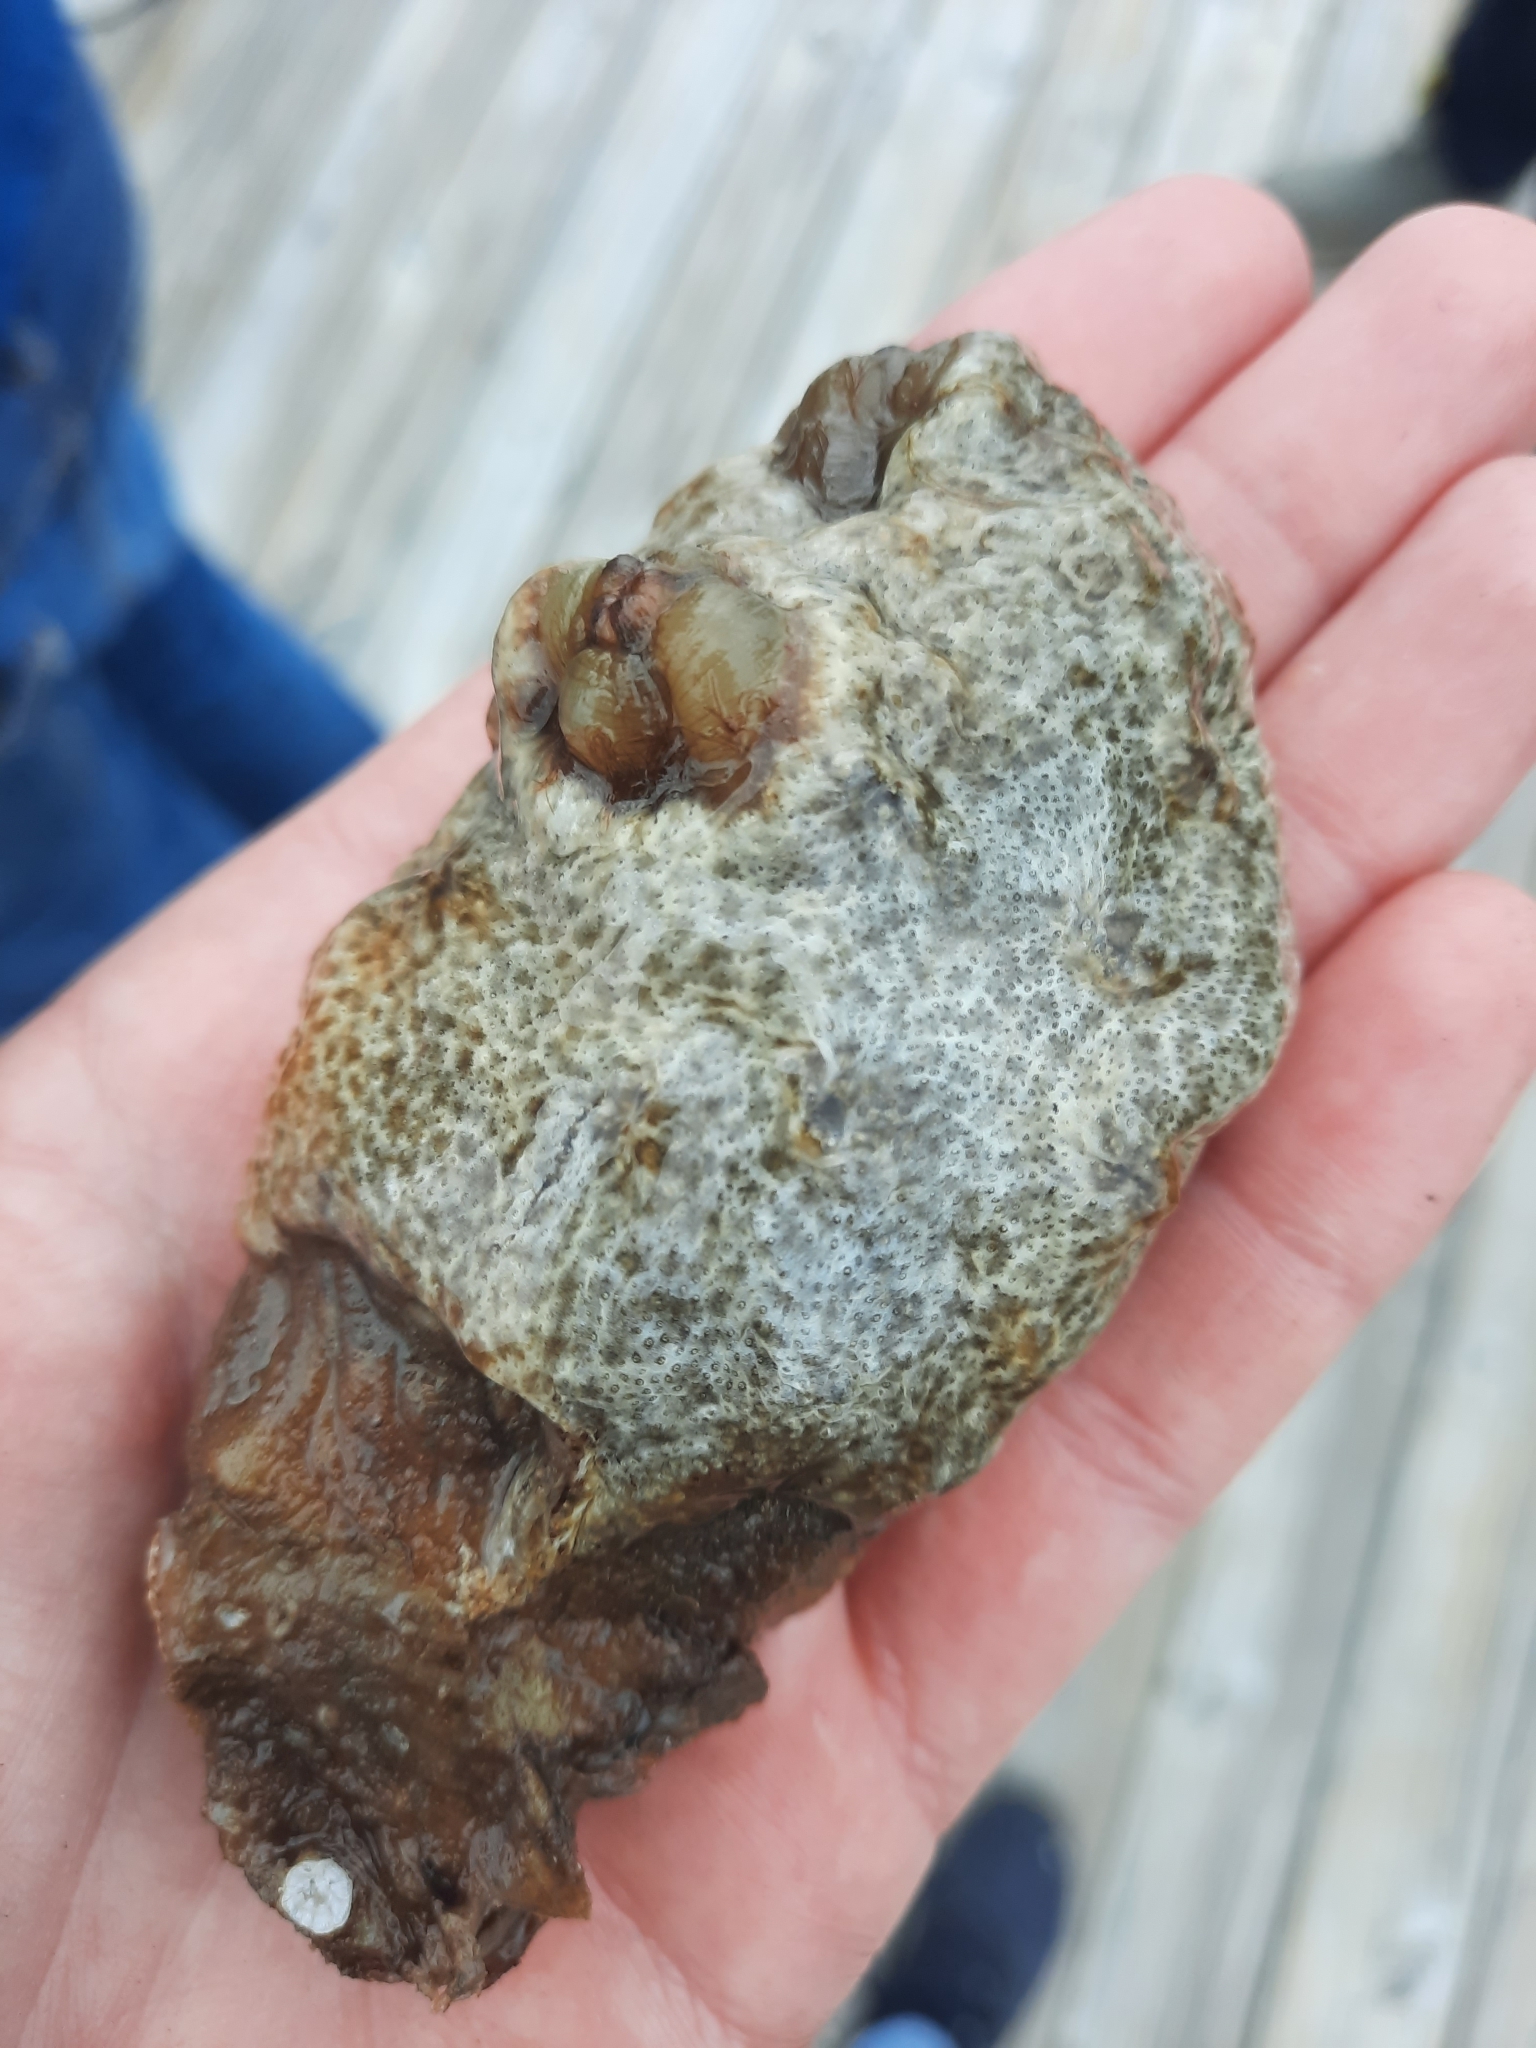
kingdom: Animalia
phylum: Chordata
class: Ascidiacea
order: Stolidobranchia
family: Styelidae
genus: Styela
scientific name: Styela plicata
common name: Pleated tunicate
